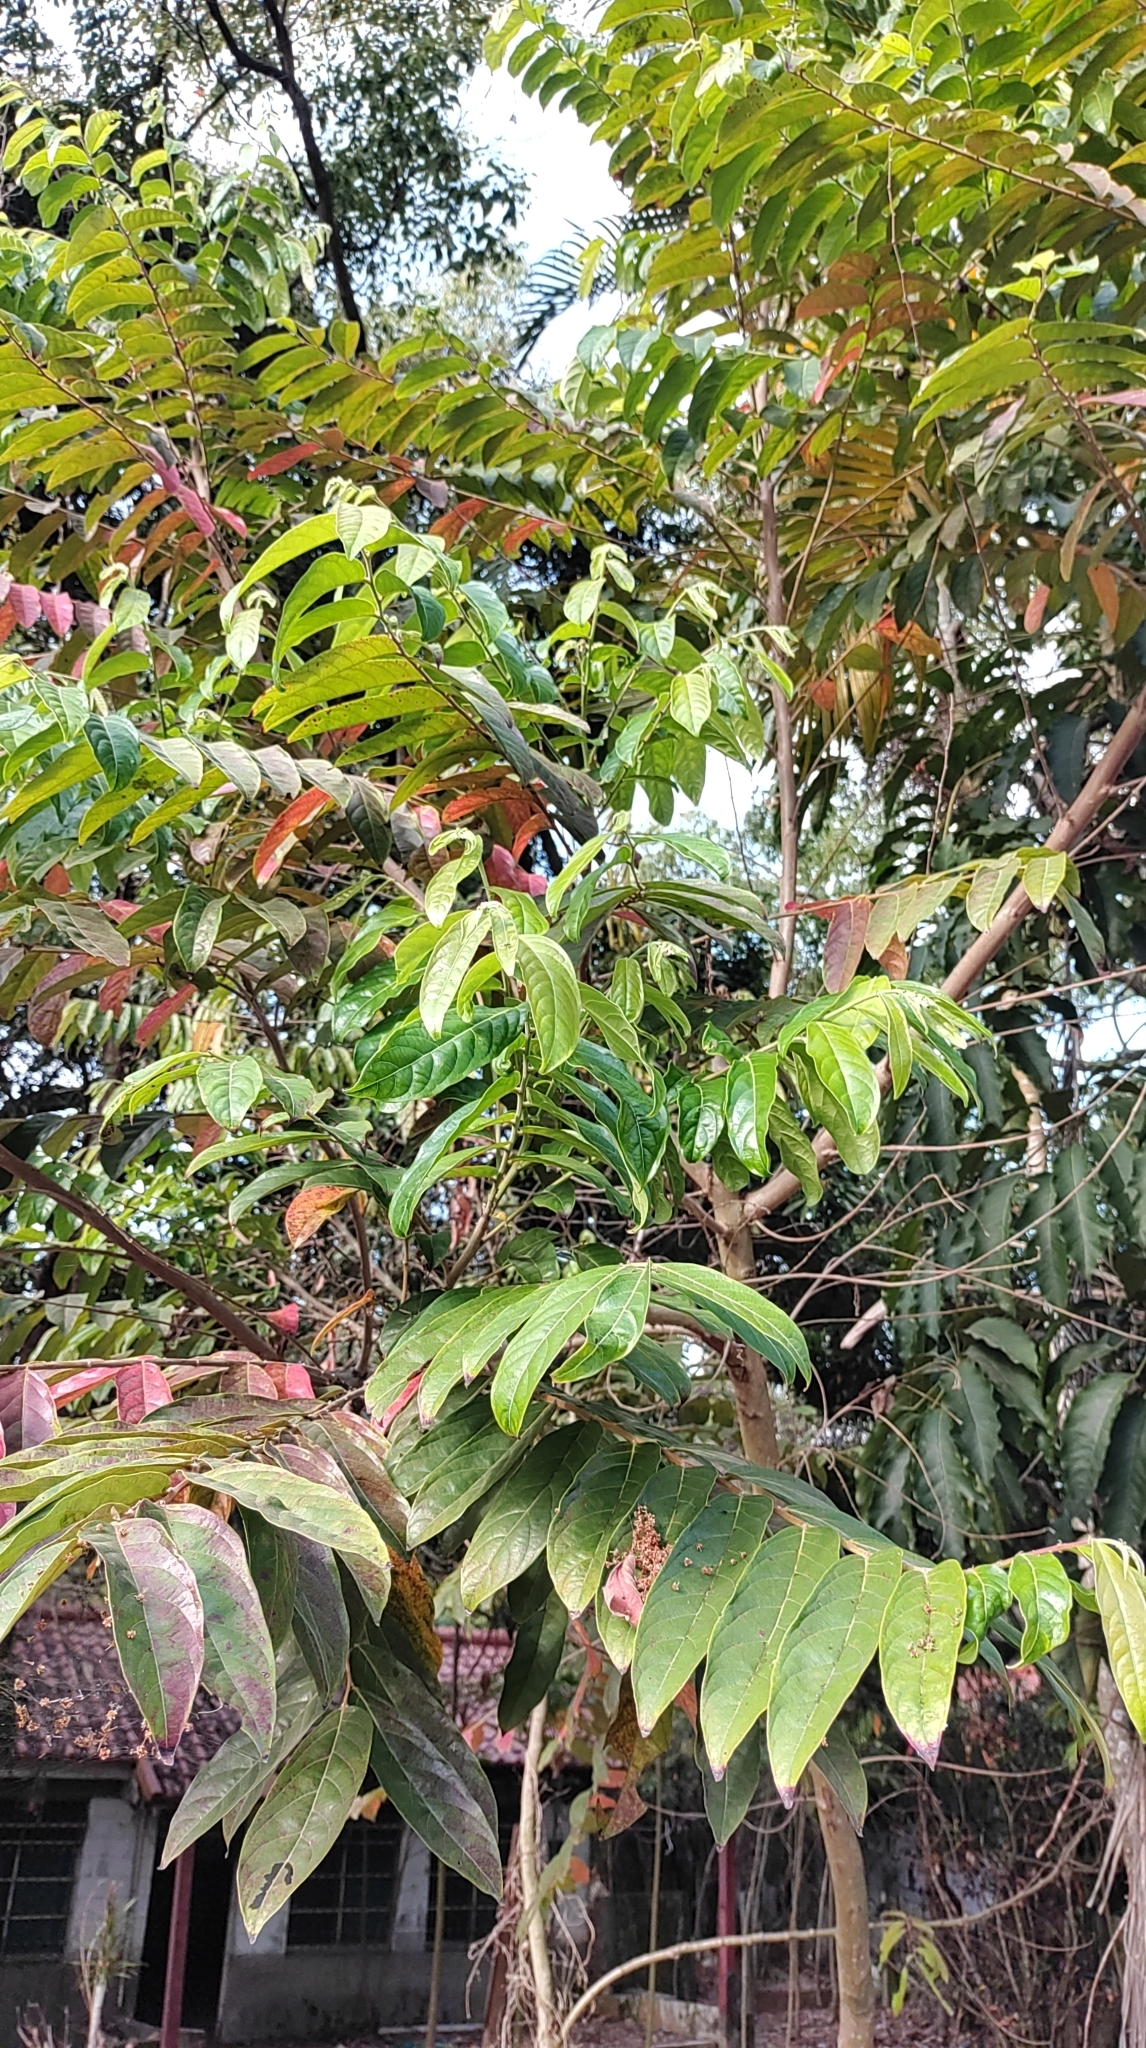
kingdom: Plantae
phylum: Tracheophyta
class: Magnoliopsida
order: Malpighiales
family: Phyllanthaceae
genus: Glochidion
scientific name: Glochidion philippicum
